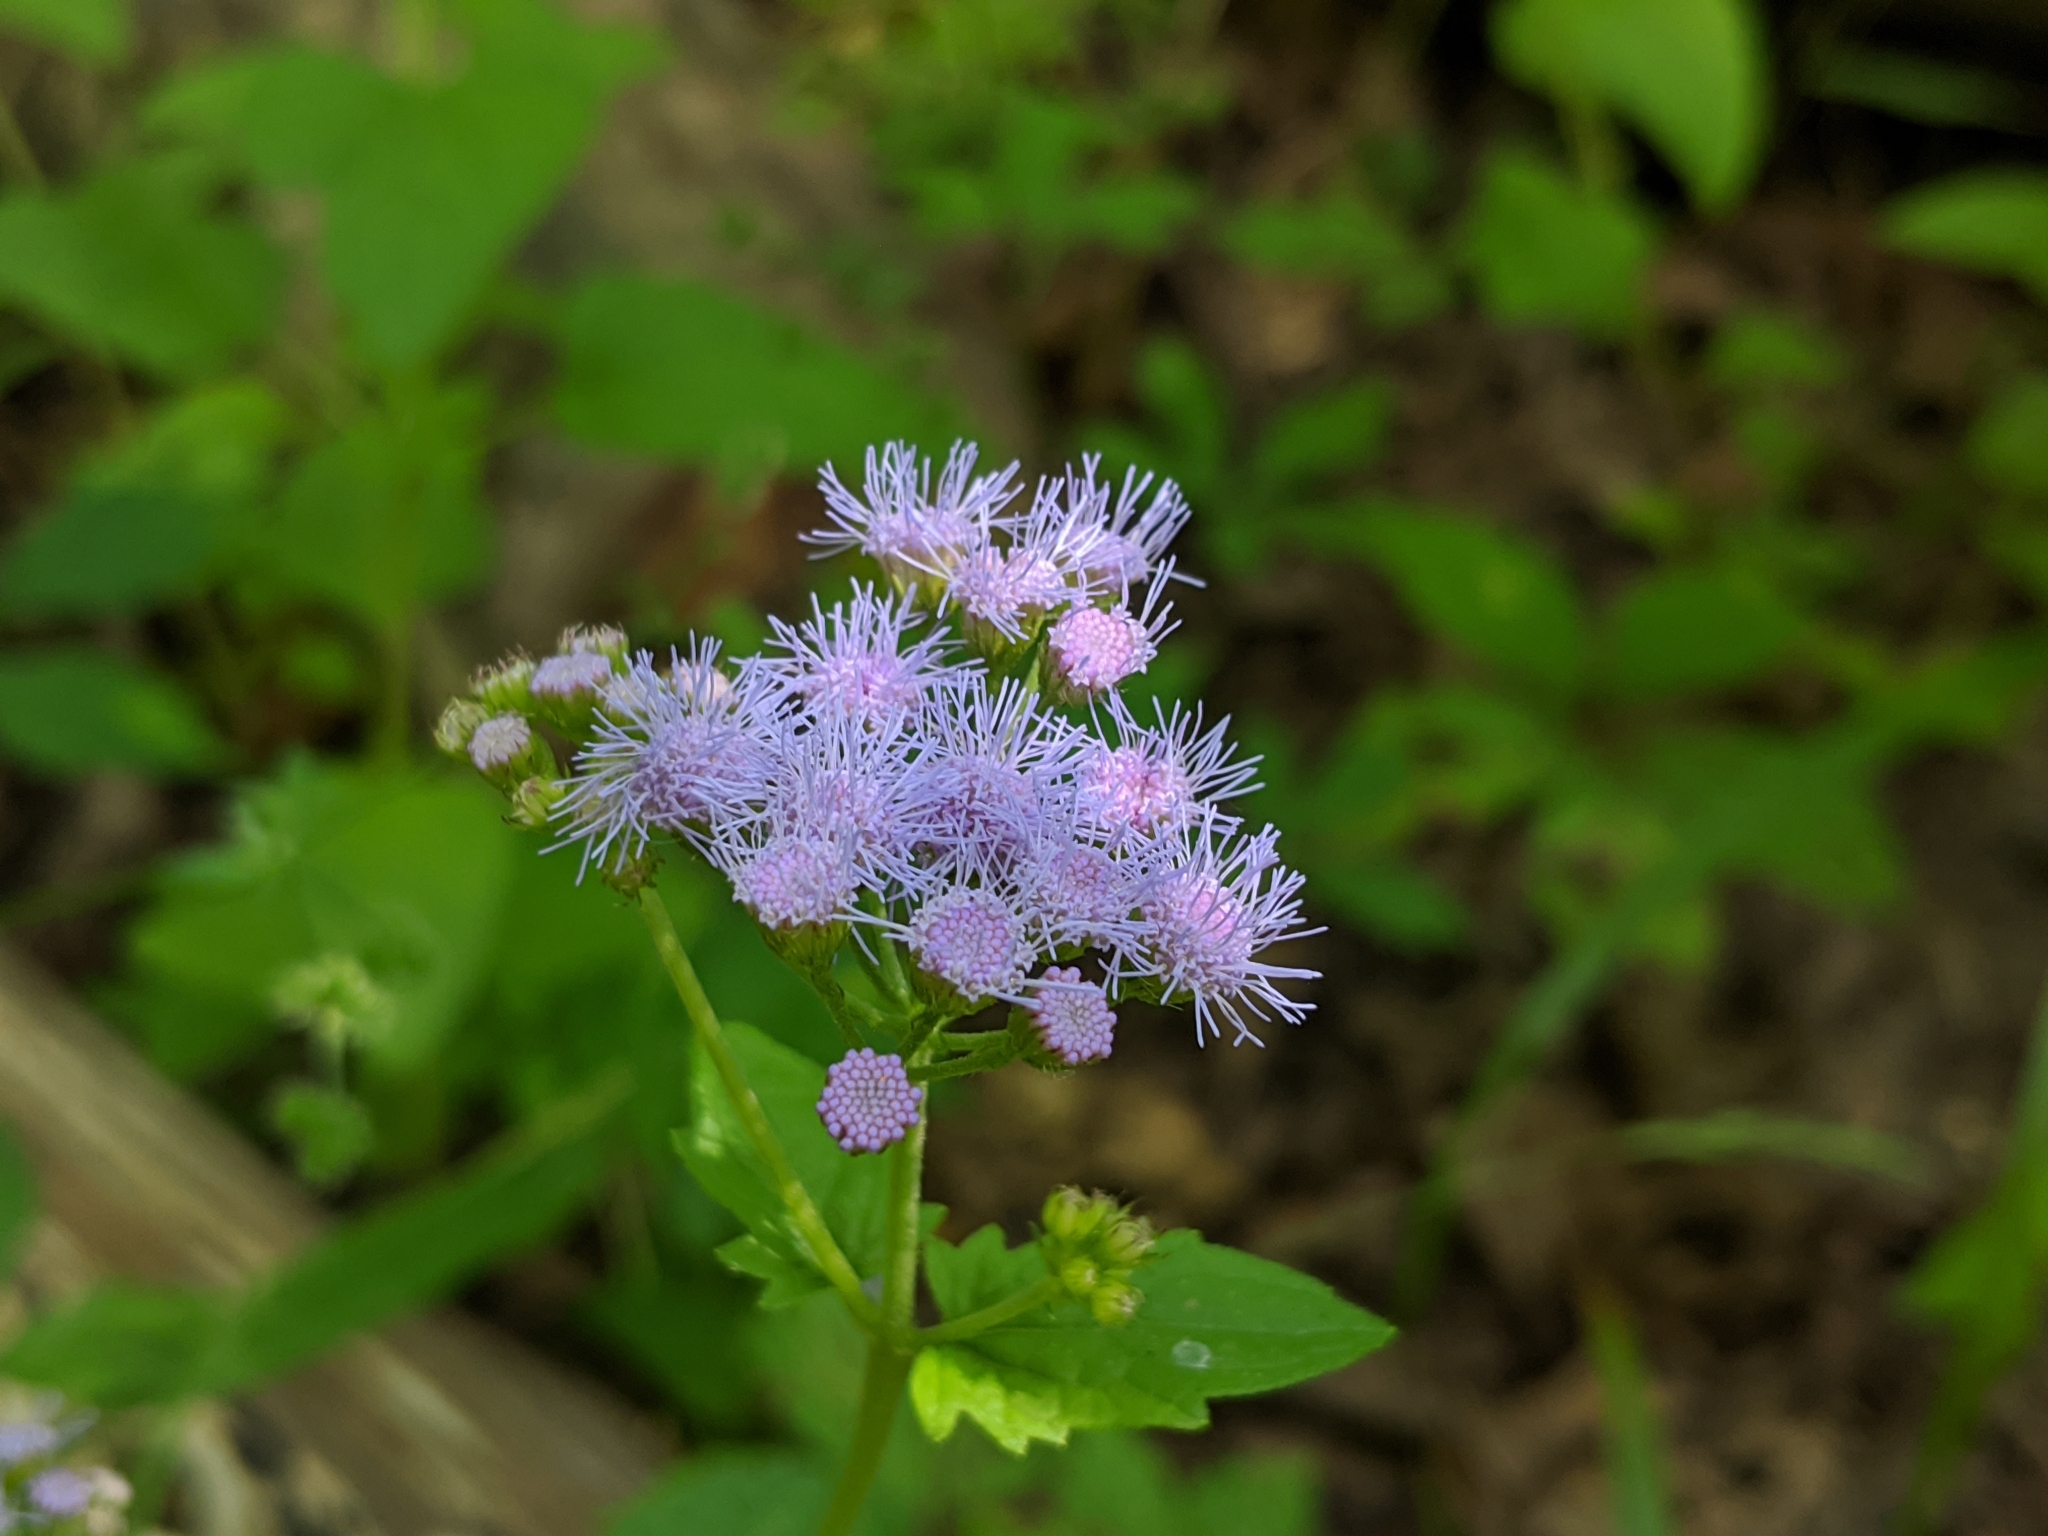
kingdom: Plantae
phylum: Tracheophyta
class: Magnoliopsida
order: Asterales
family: Asteraceae
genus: Conoclinium
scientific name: Conoclinium coelestinum
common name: Blue mistflower
